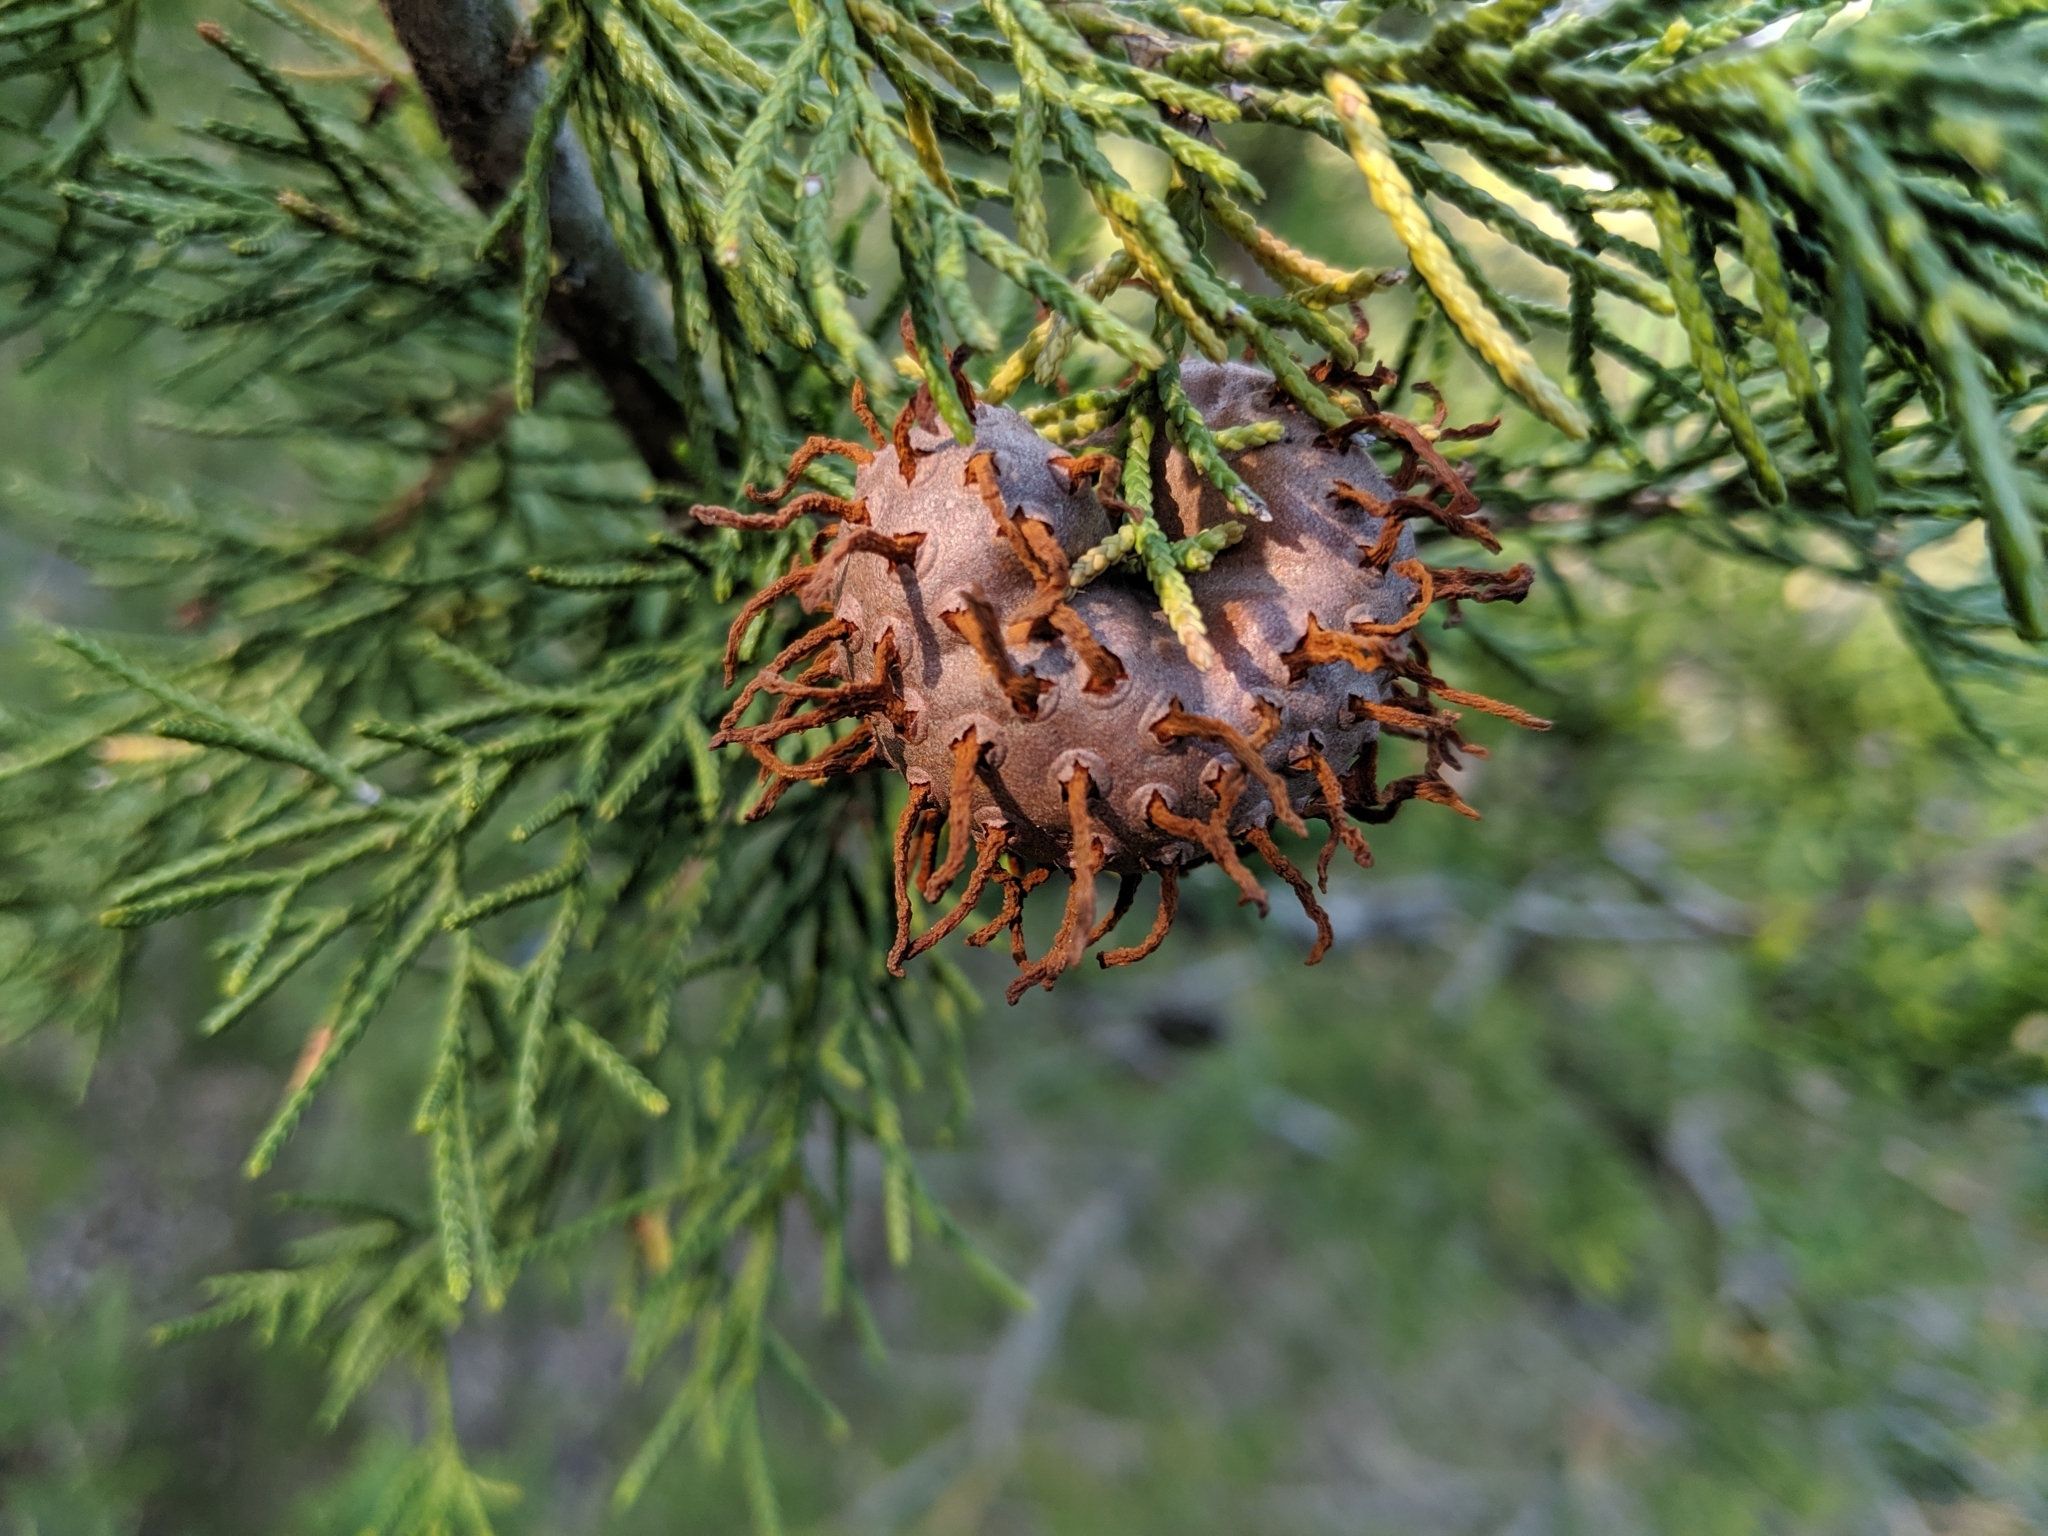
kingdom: Fungi
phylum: Basidiomycota
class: Pucciniomycetes
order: Pucciniales
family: Gymnosporangiaceae
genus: Gymnosporangium
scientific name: Gymnosporangium juniperi-virginianae
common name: Juniper-apple rust
